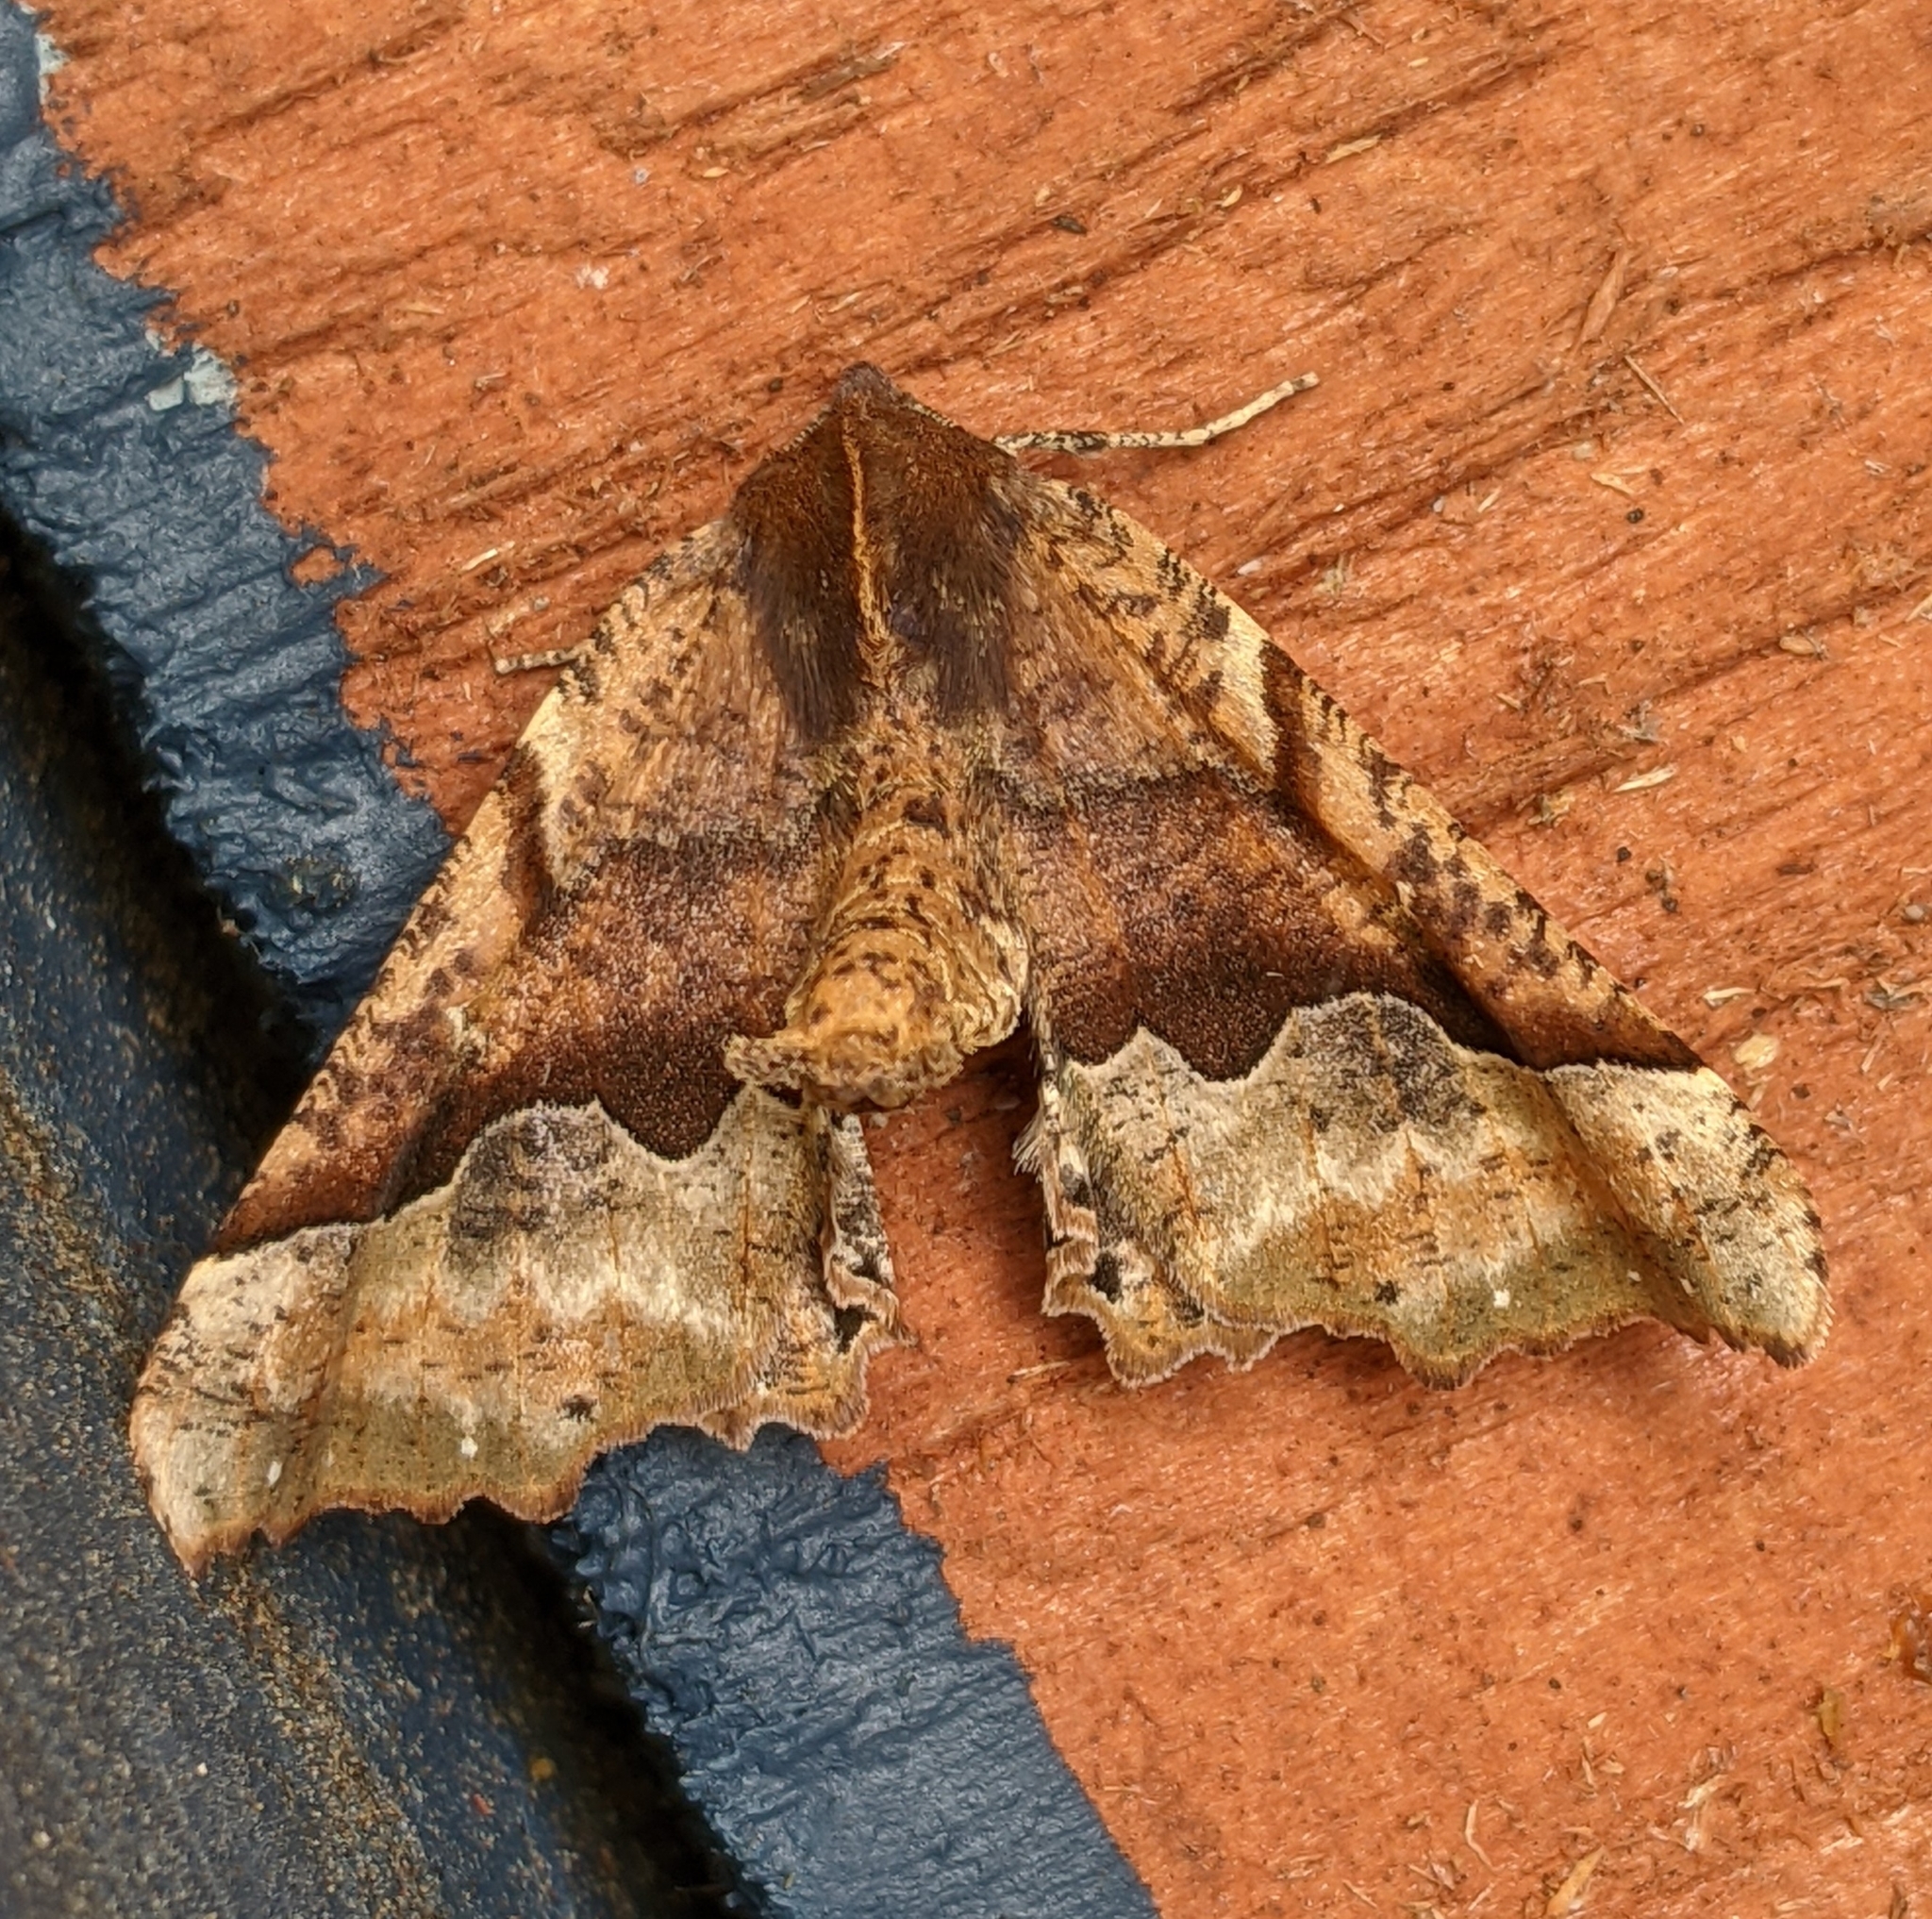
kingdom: Animalia
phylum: Arthropoda
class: Insecta
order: Lepidoptera
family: Geometridae
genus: Pero
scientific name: Pero morrisonaria
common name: Morrison's pero
